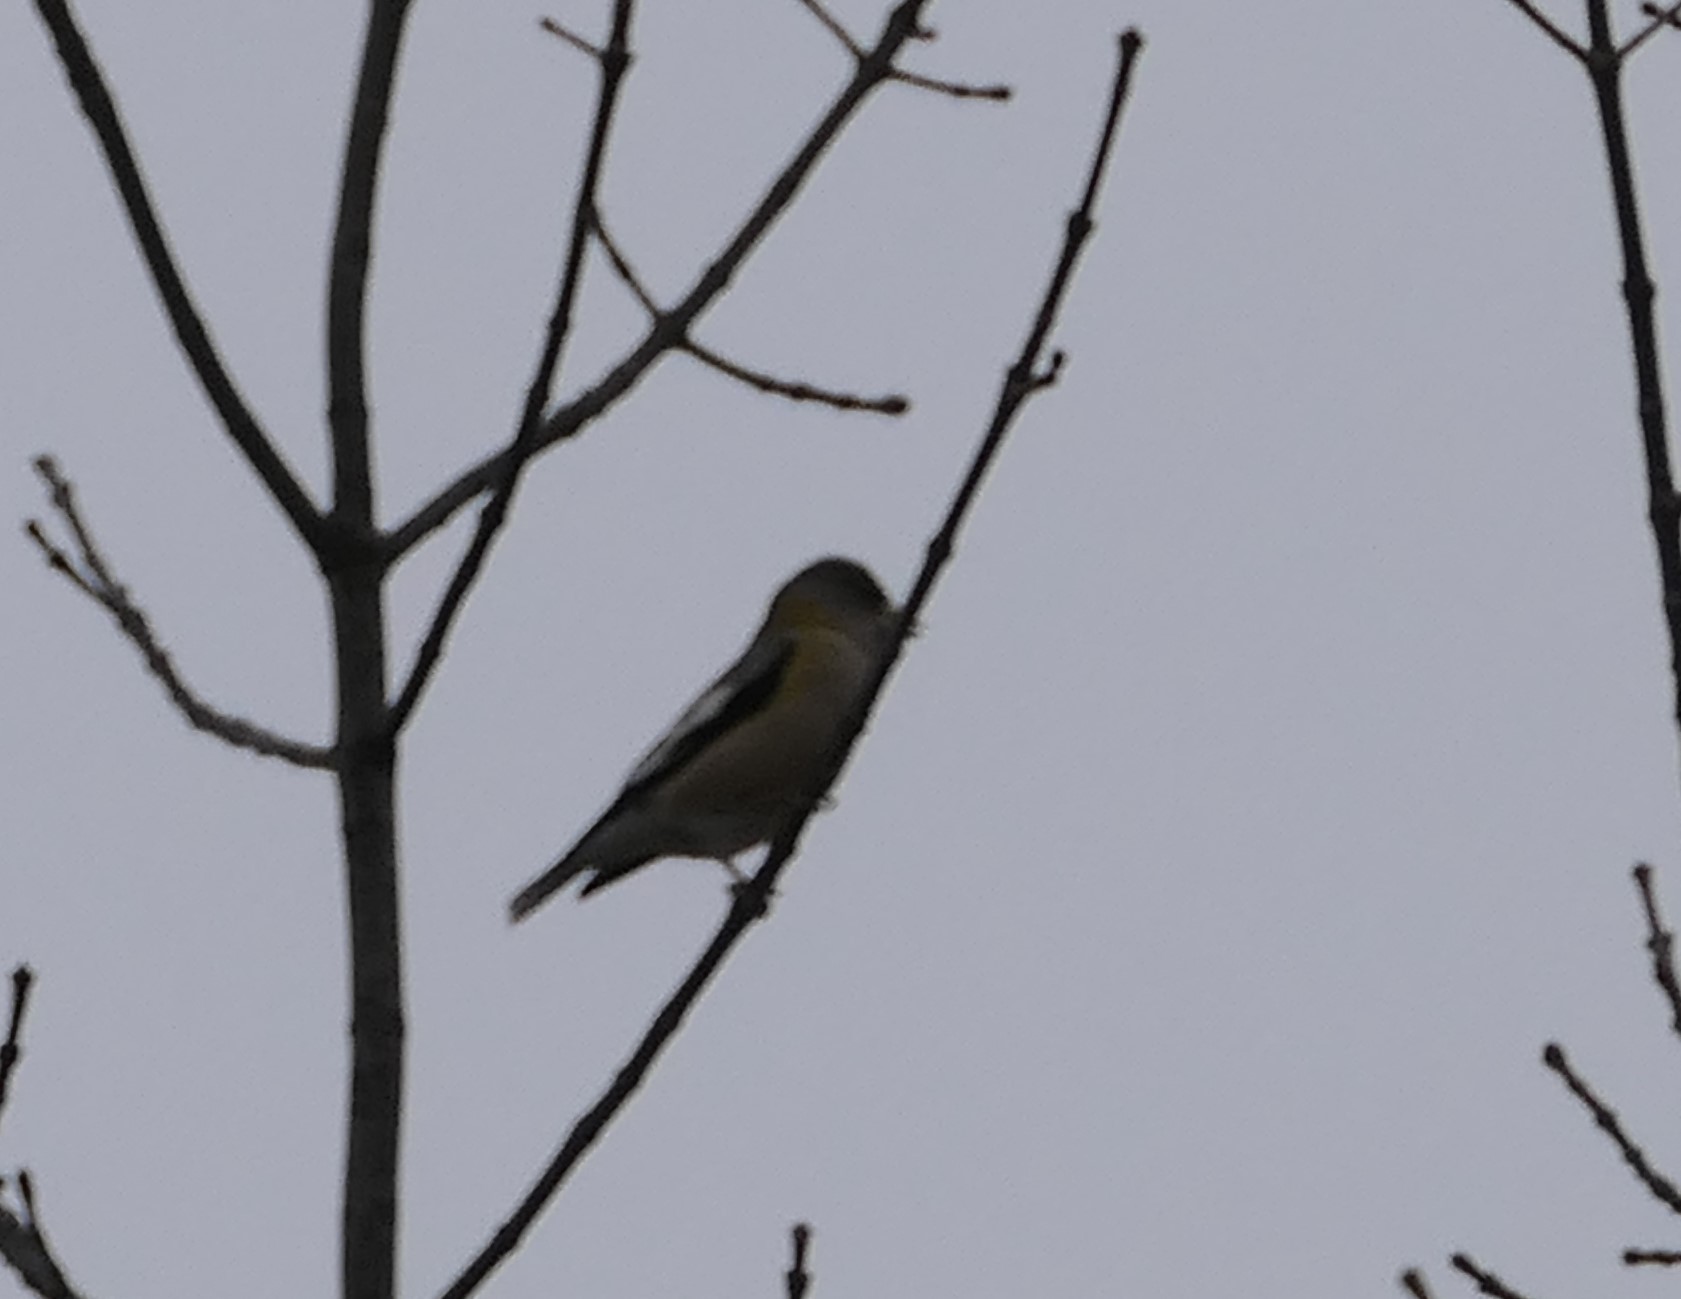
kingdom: Animalia
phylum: Chordata
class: Aves
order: Passeriformes
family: Fringillidae
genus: Hesperiphona
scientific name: Hesperiphona vespertina
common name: Evening grosbeak
